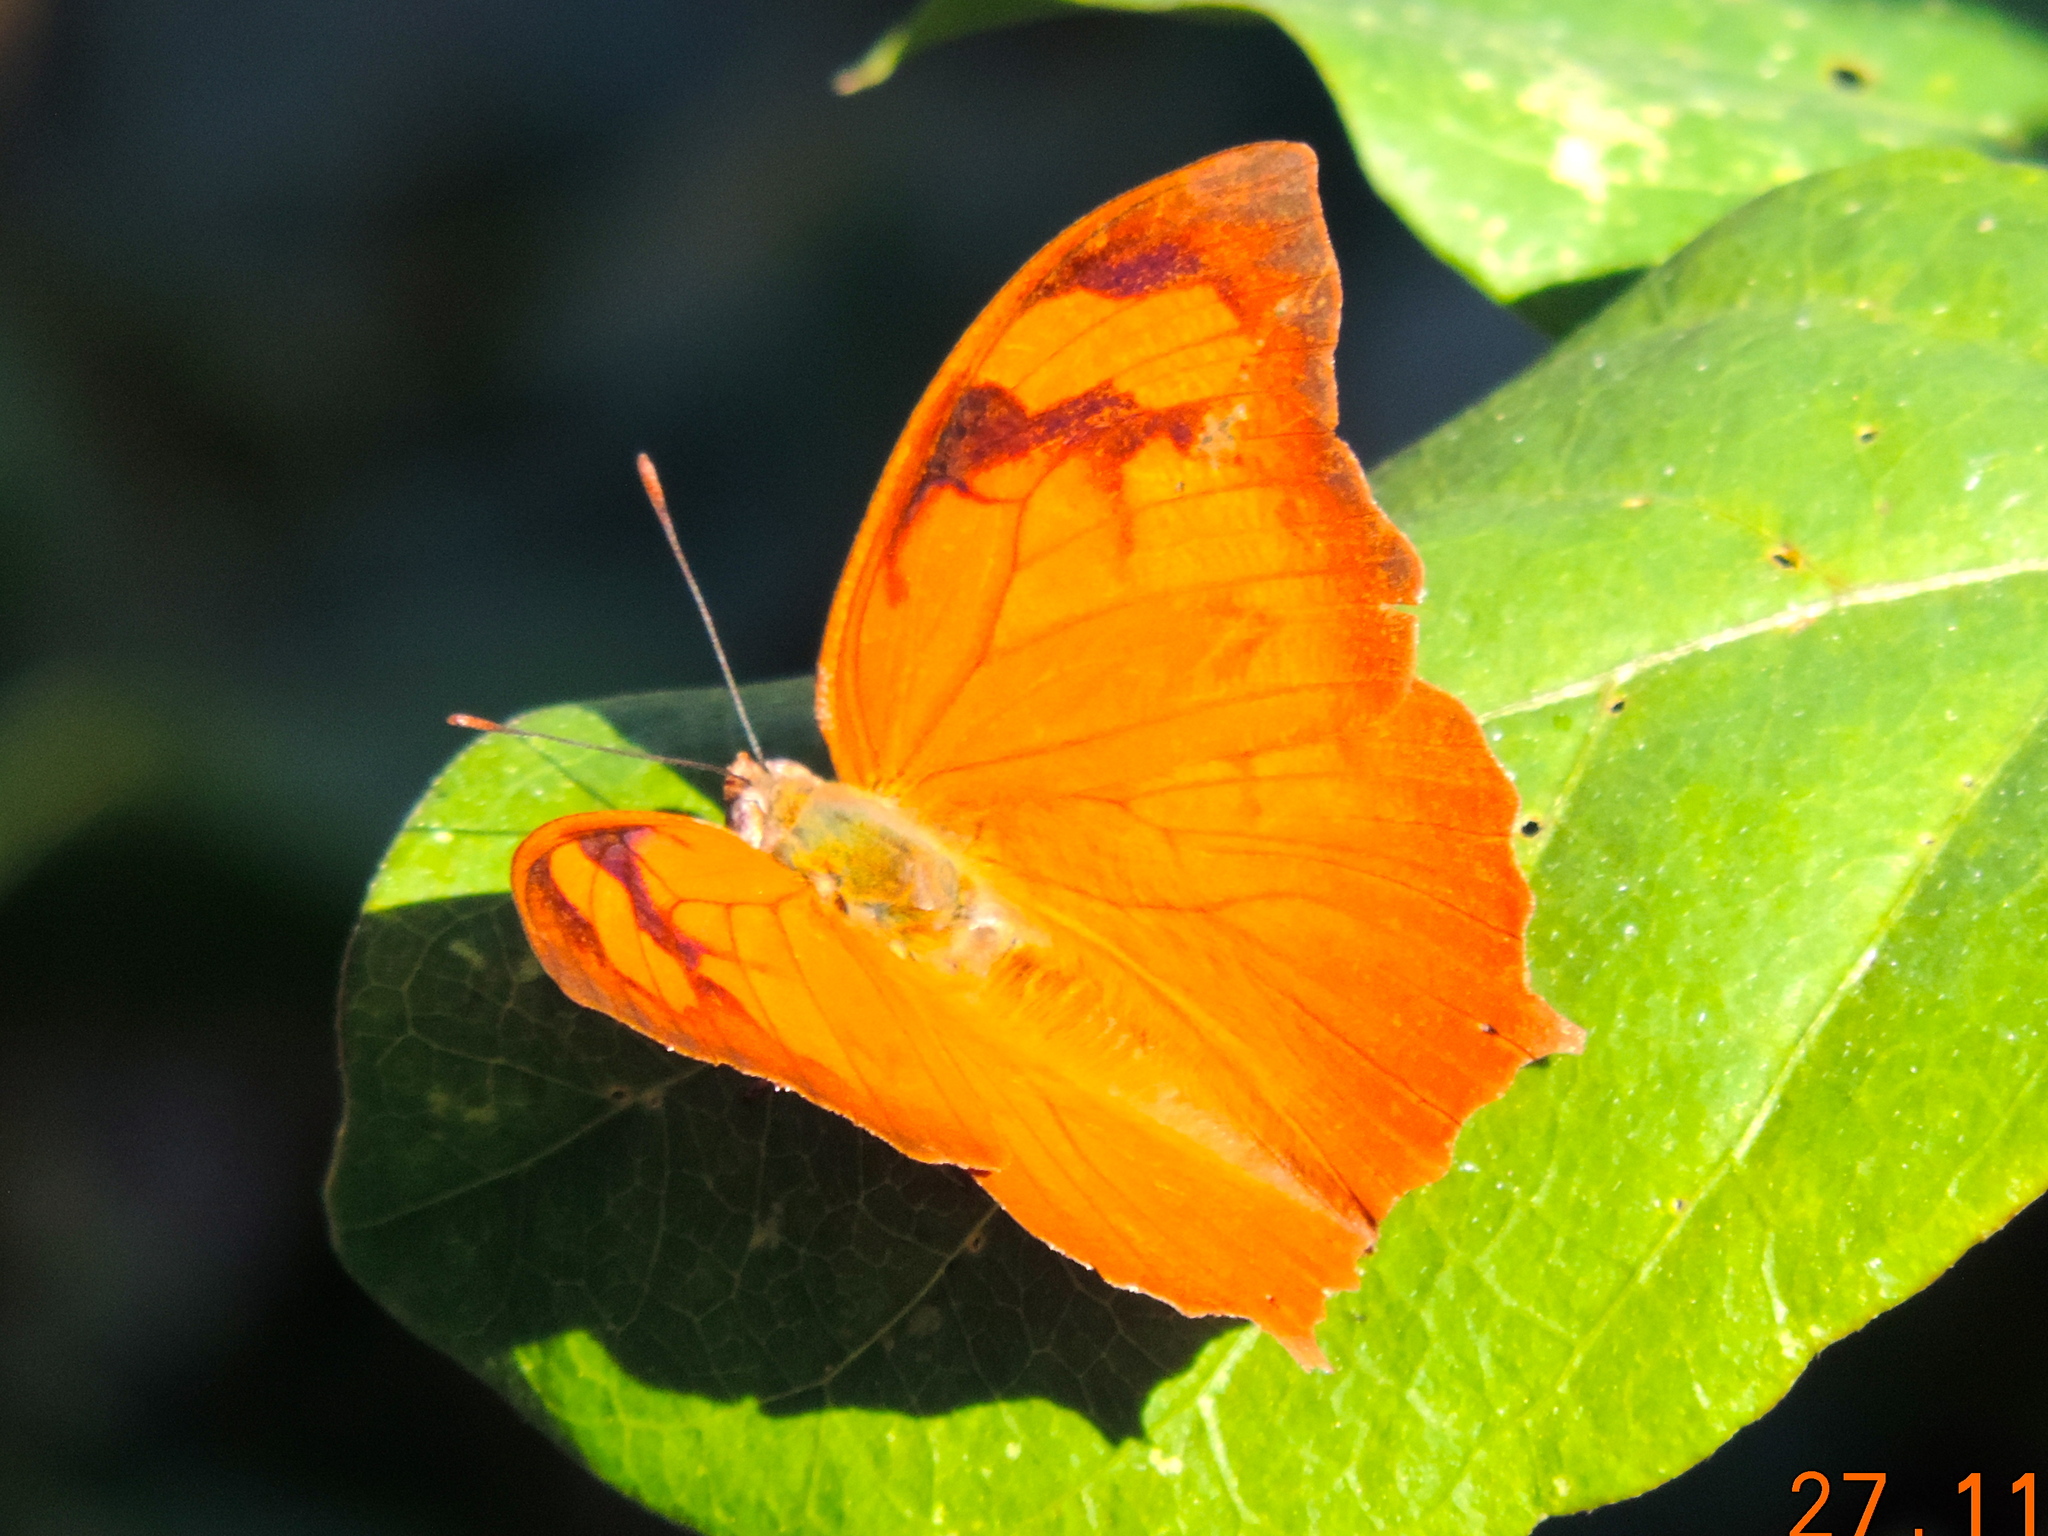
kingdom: Animalia
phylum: Arthropoda
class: Insecta
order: Lepidoptera
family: Nymphalidae
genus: Fountainea
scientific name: Fountainea
